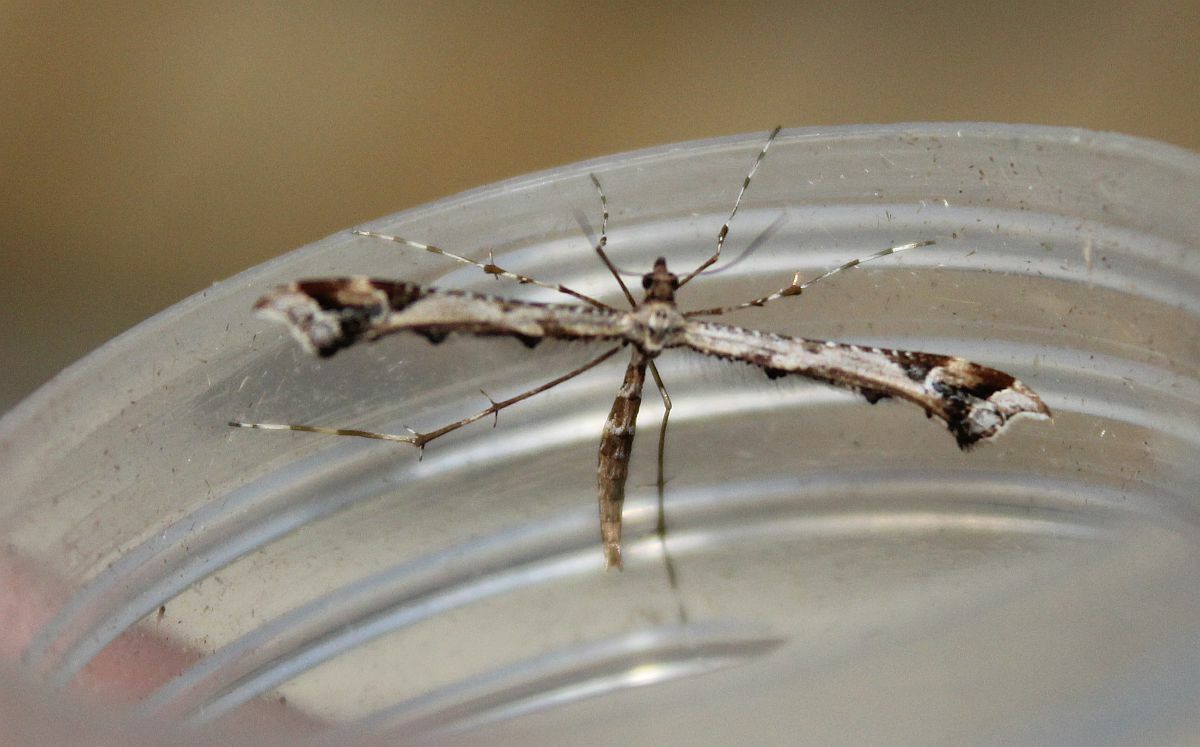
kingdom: Animalia
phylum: Arthropoda
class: Insecta
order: Lepidoptera
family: Pterophoridae
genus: Amblyptilia
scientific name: Amblyptilia acanthadactyla
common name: Beautiful plume
